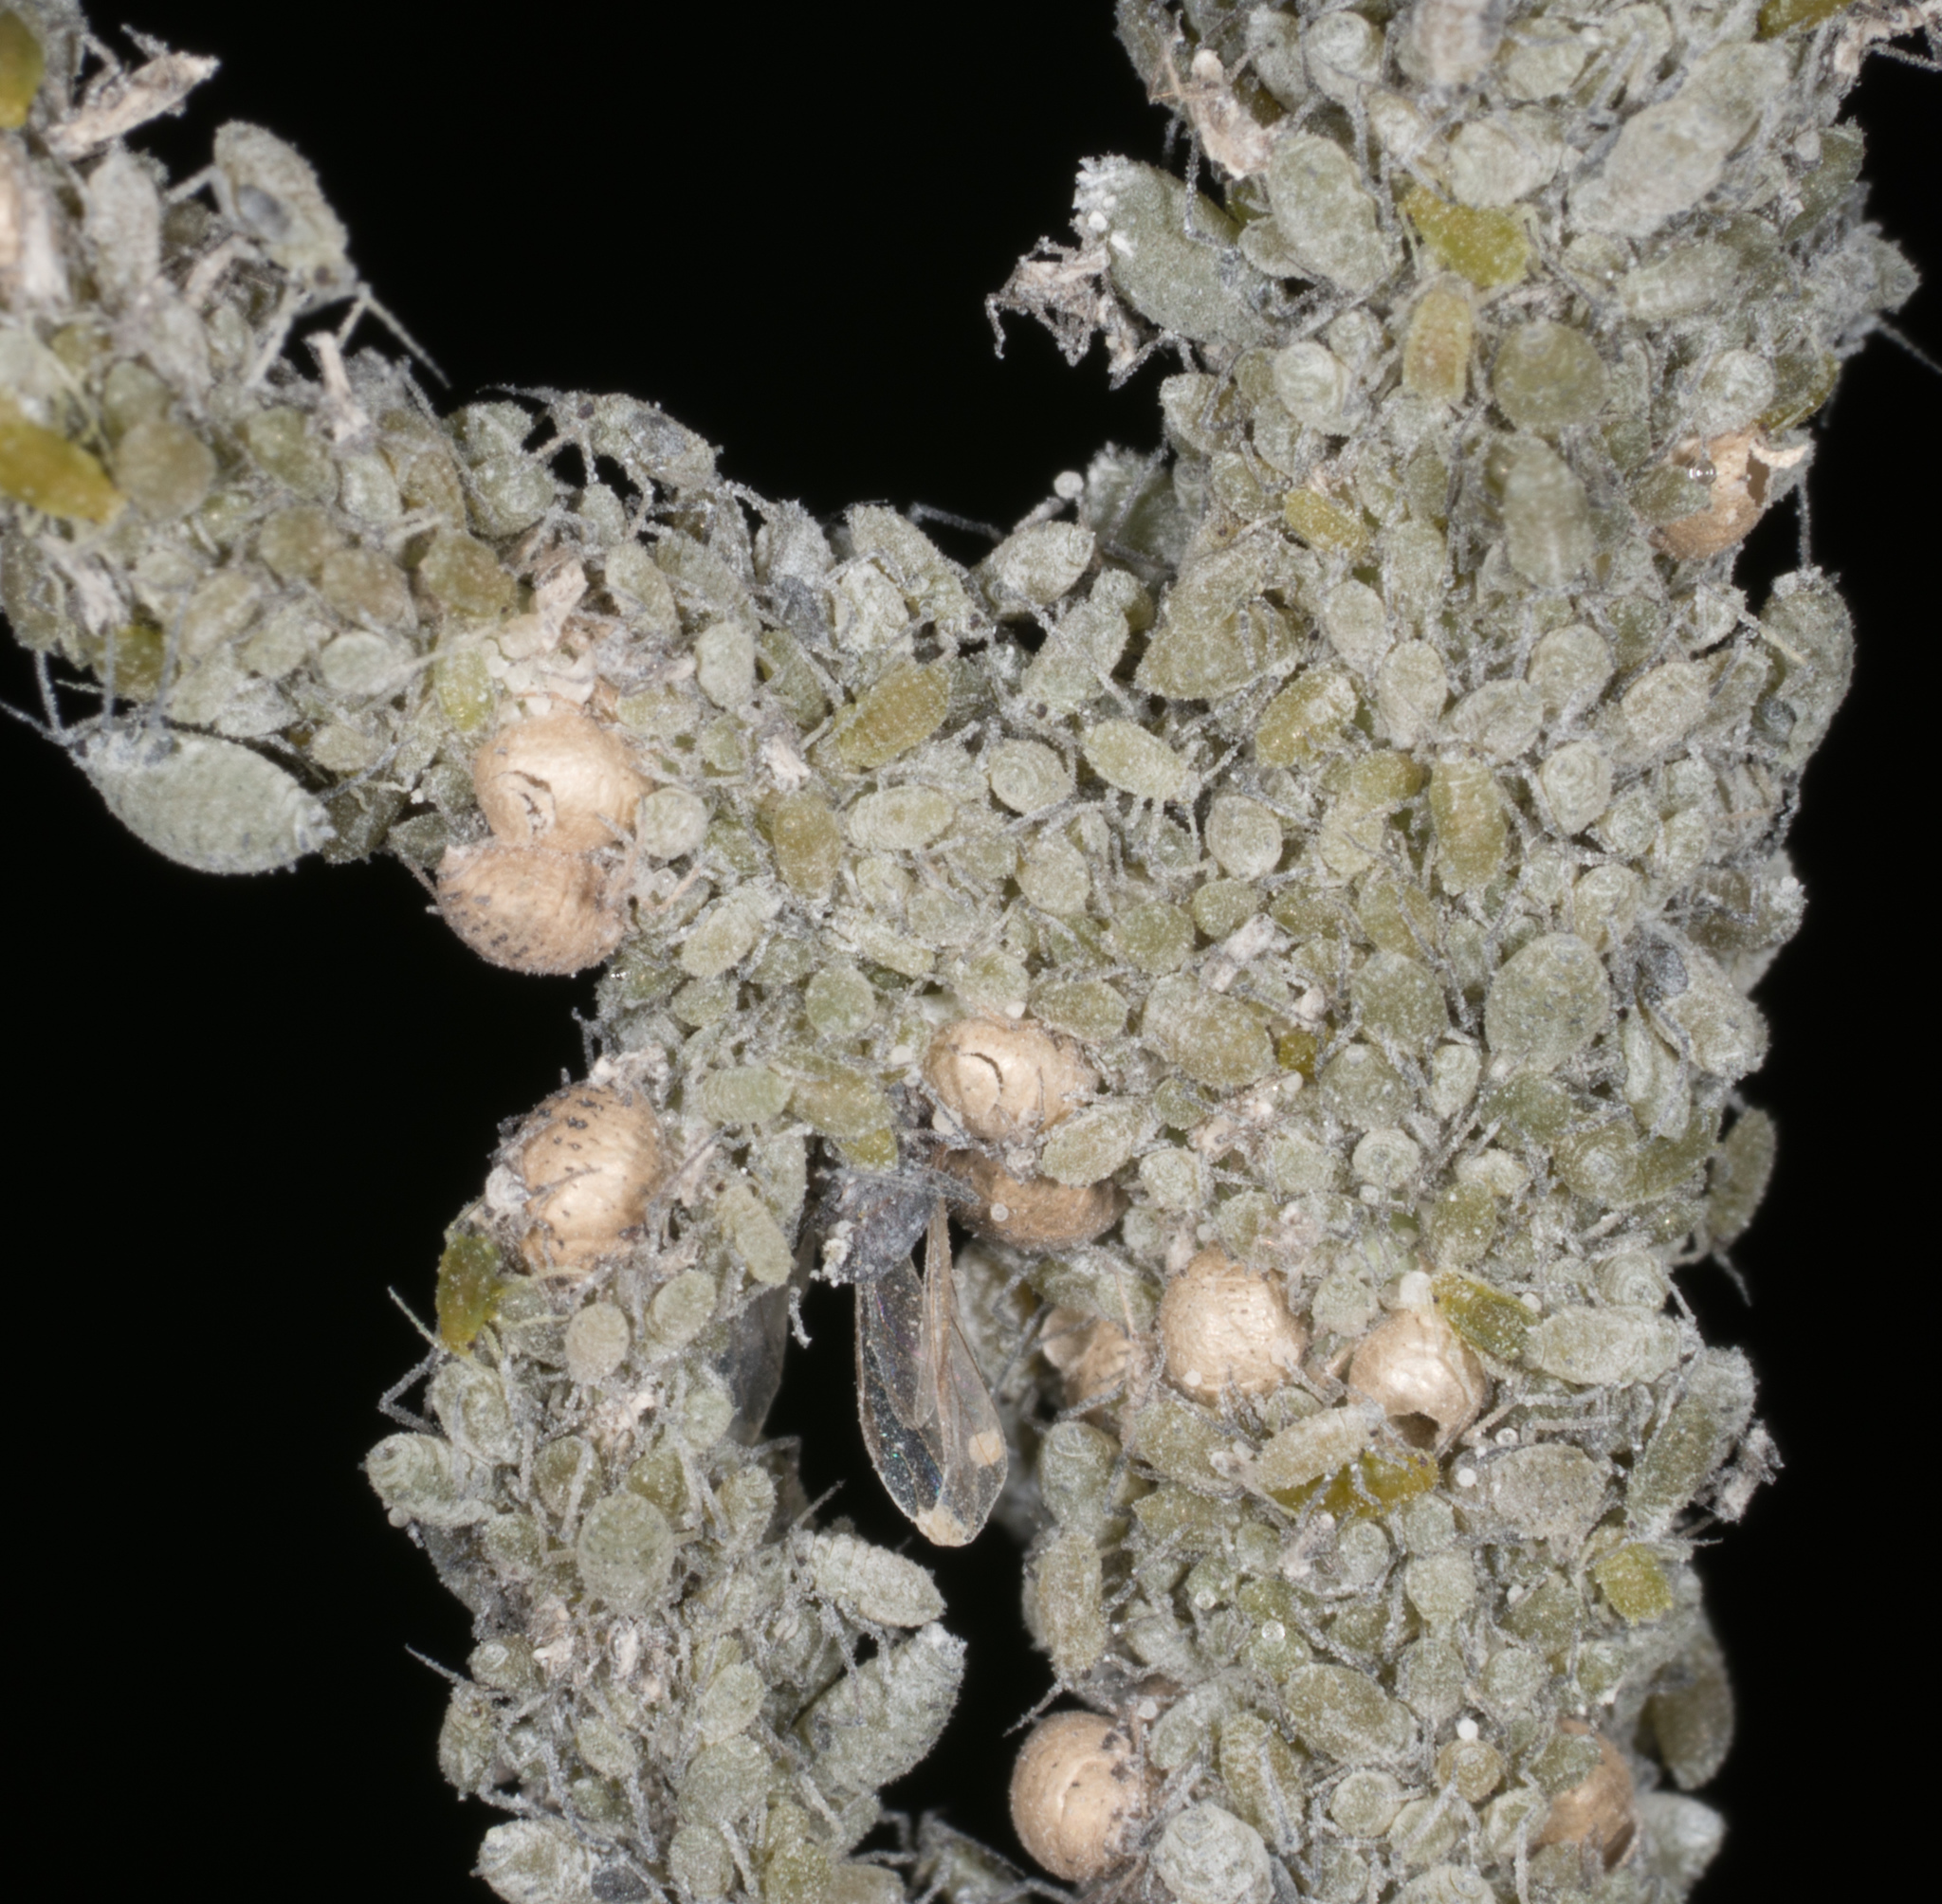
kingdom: Animalia
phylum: Arthropoda
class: Insecta
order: Hemiptera
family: Aphididae
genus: Brevicoryne
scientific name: Brevicoryne brassicae
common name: Cabbage aphid
